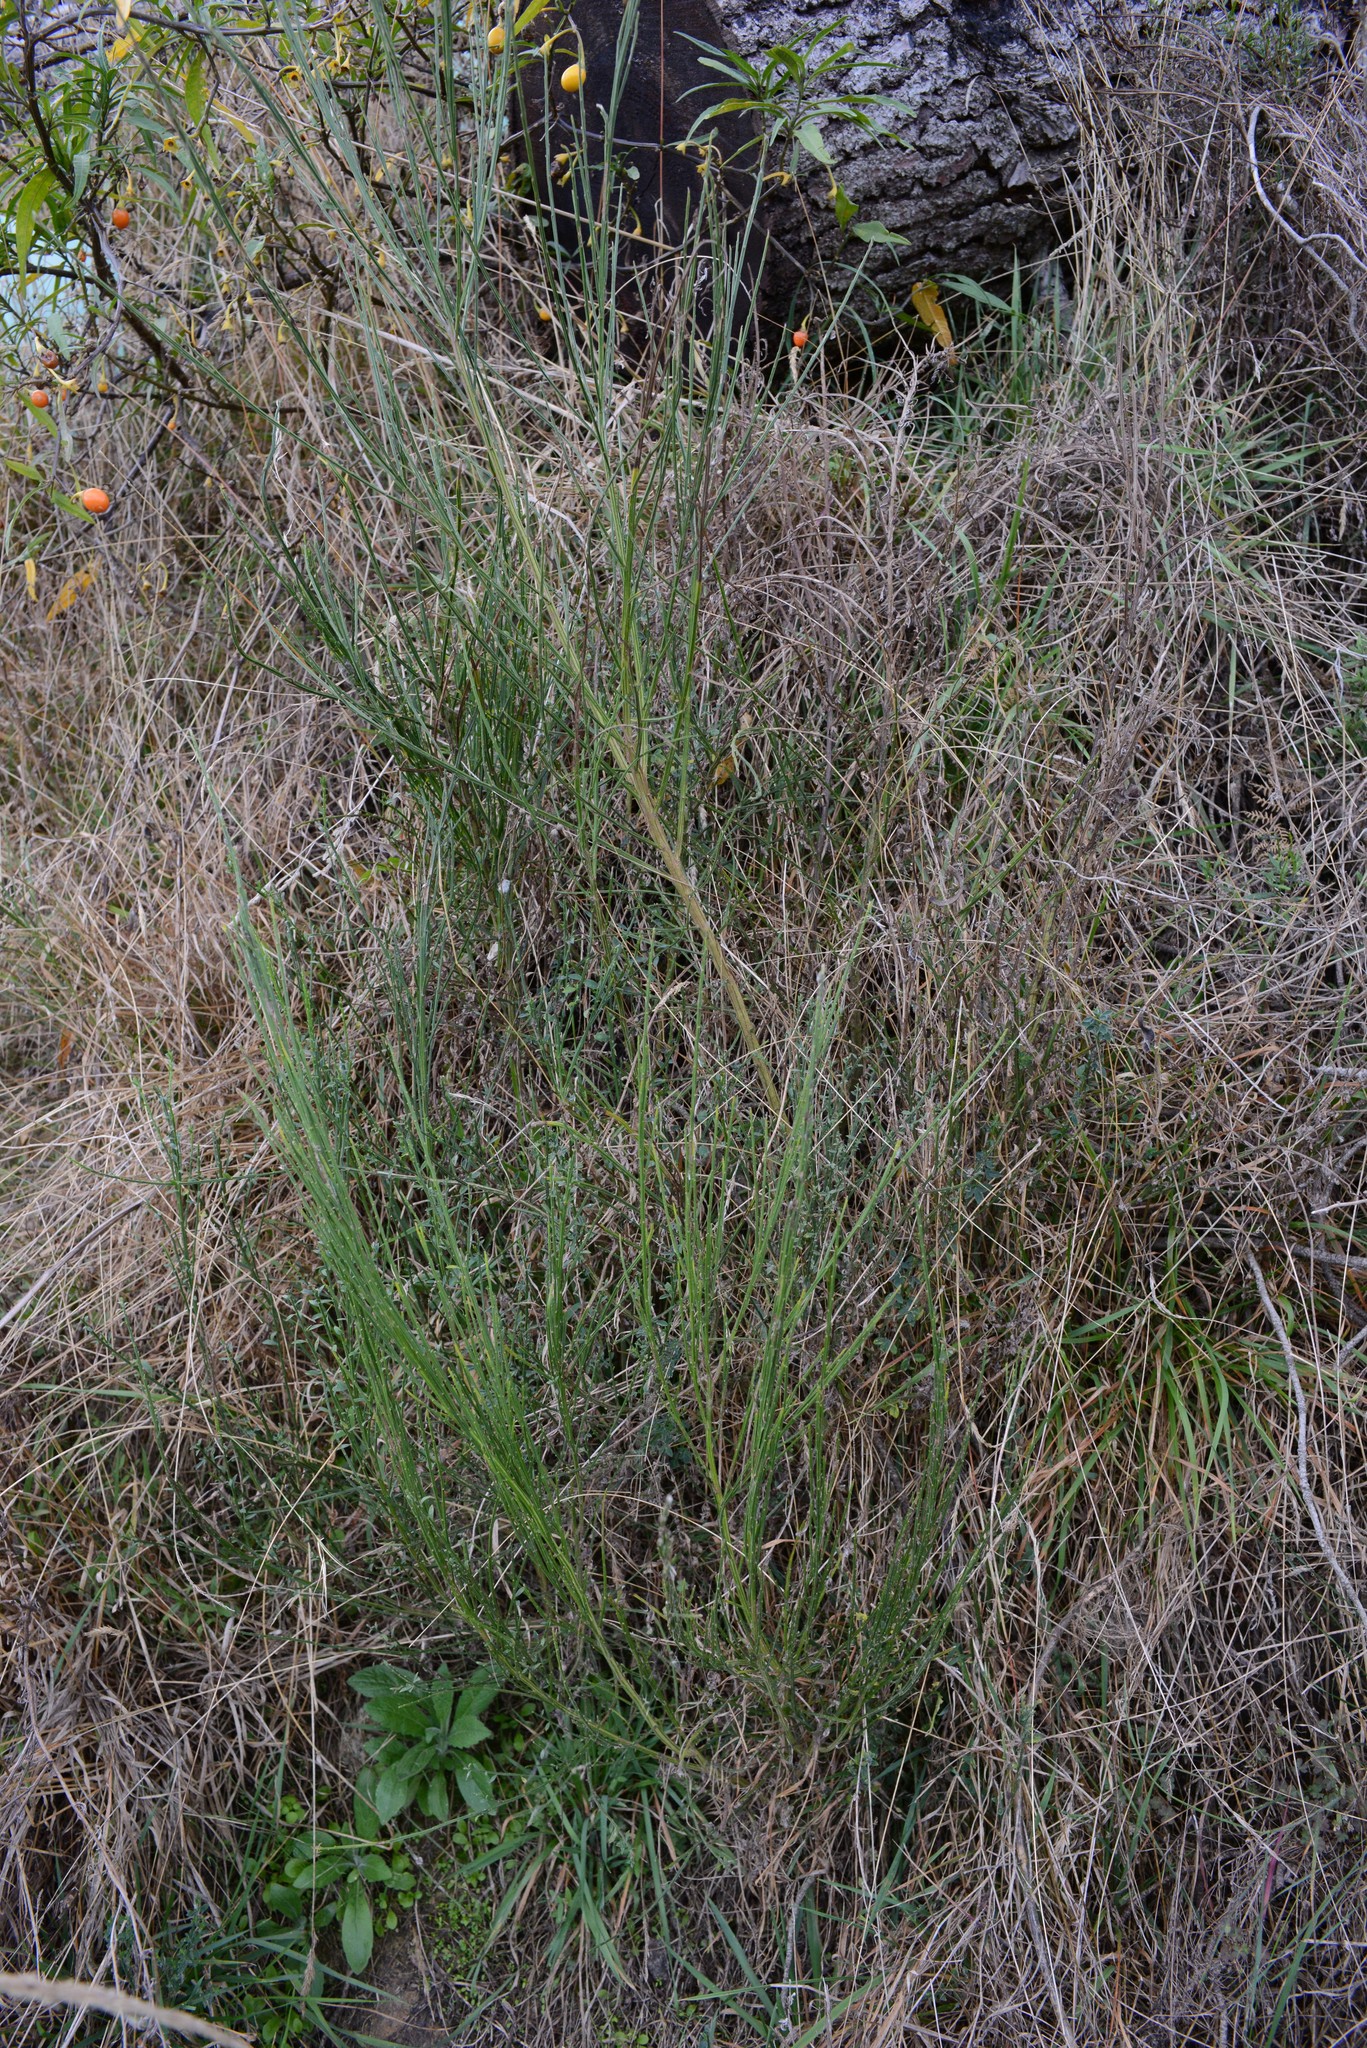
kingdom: Plantae
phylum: Tracheophyta
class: Magnoliopsida
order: Fabales
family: Fabaceae
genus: Cytisus
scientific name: Cytisus scoparius
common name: Scotch broom
